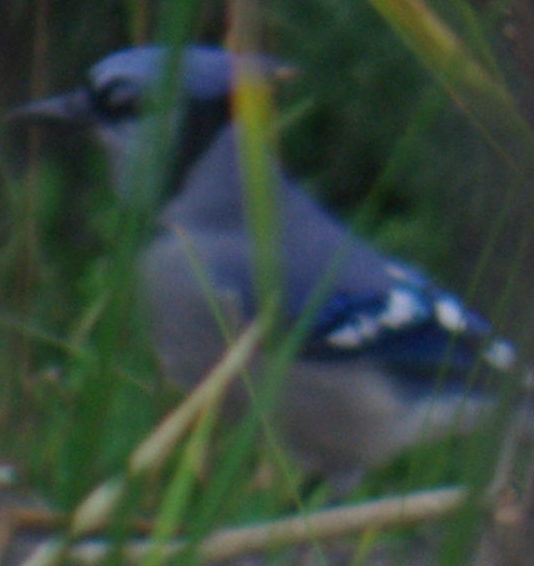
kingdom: Animalia
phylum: Chordata
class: Aves
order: Passeriformes
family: Corvidae
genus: Cyanocitta
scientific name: Cyanocitta cristata
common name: Blue jay
